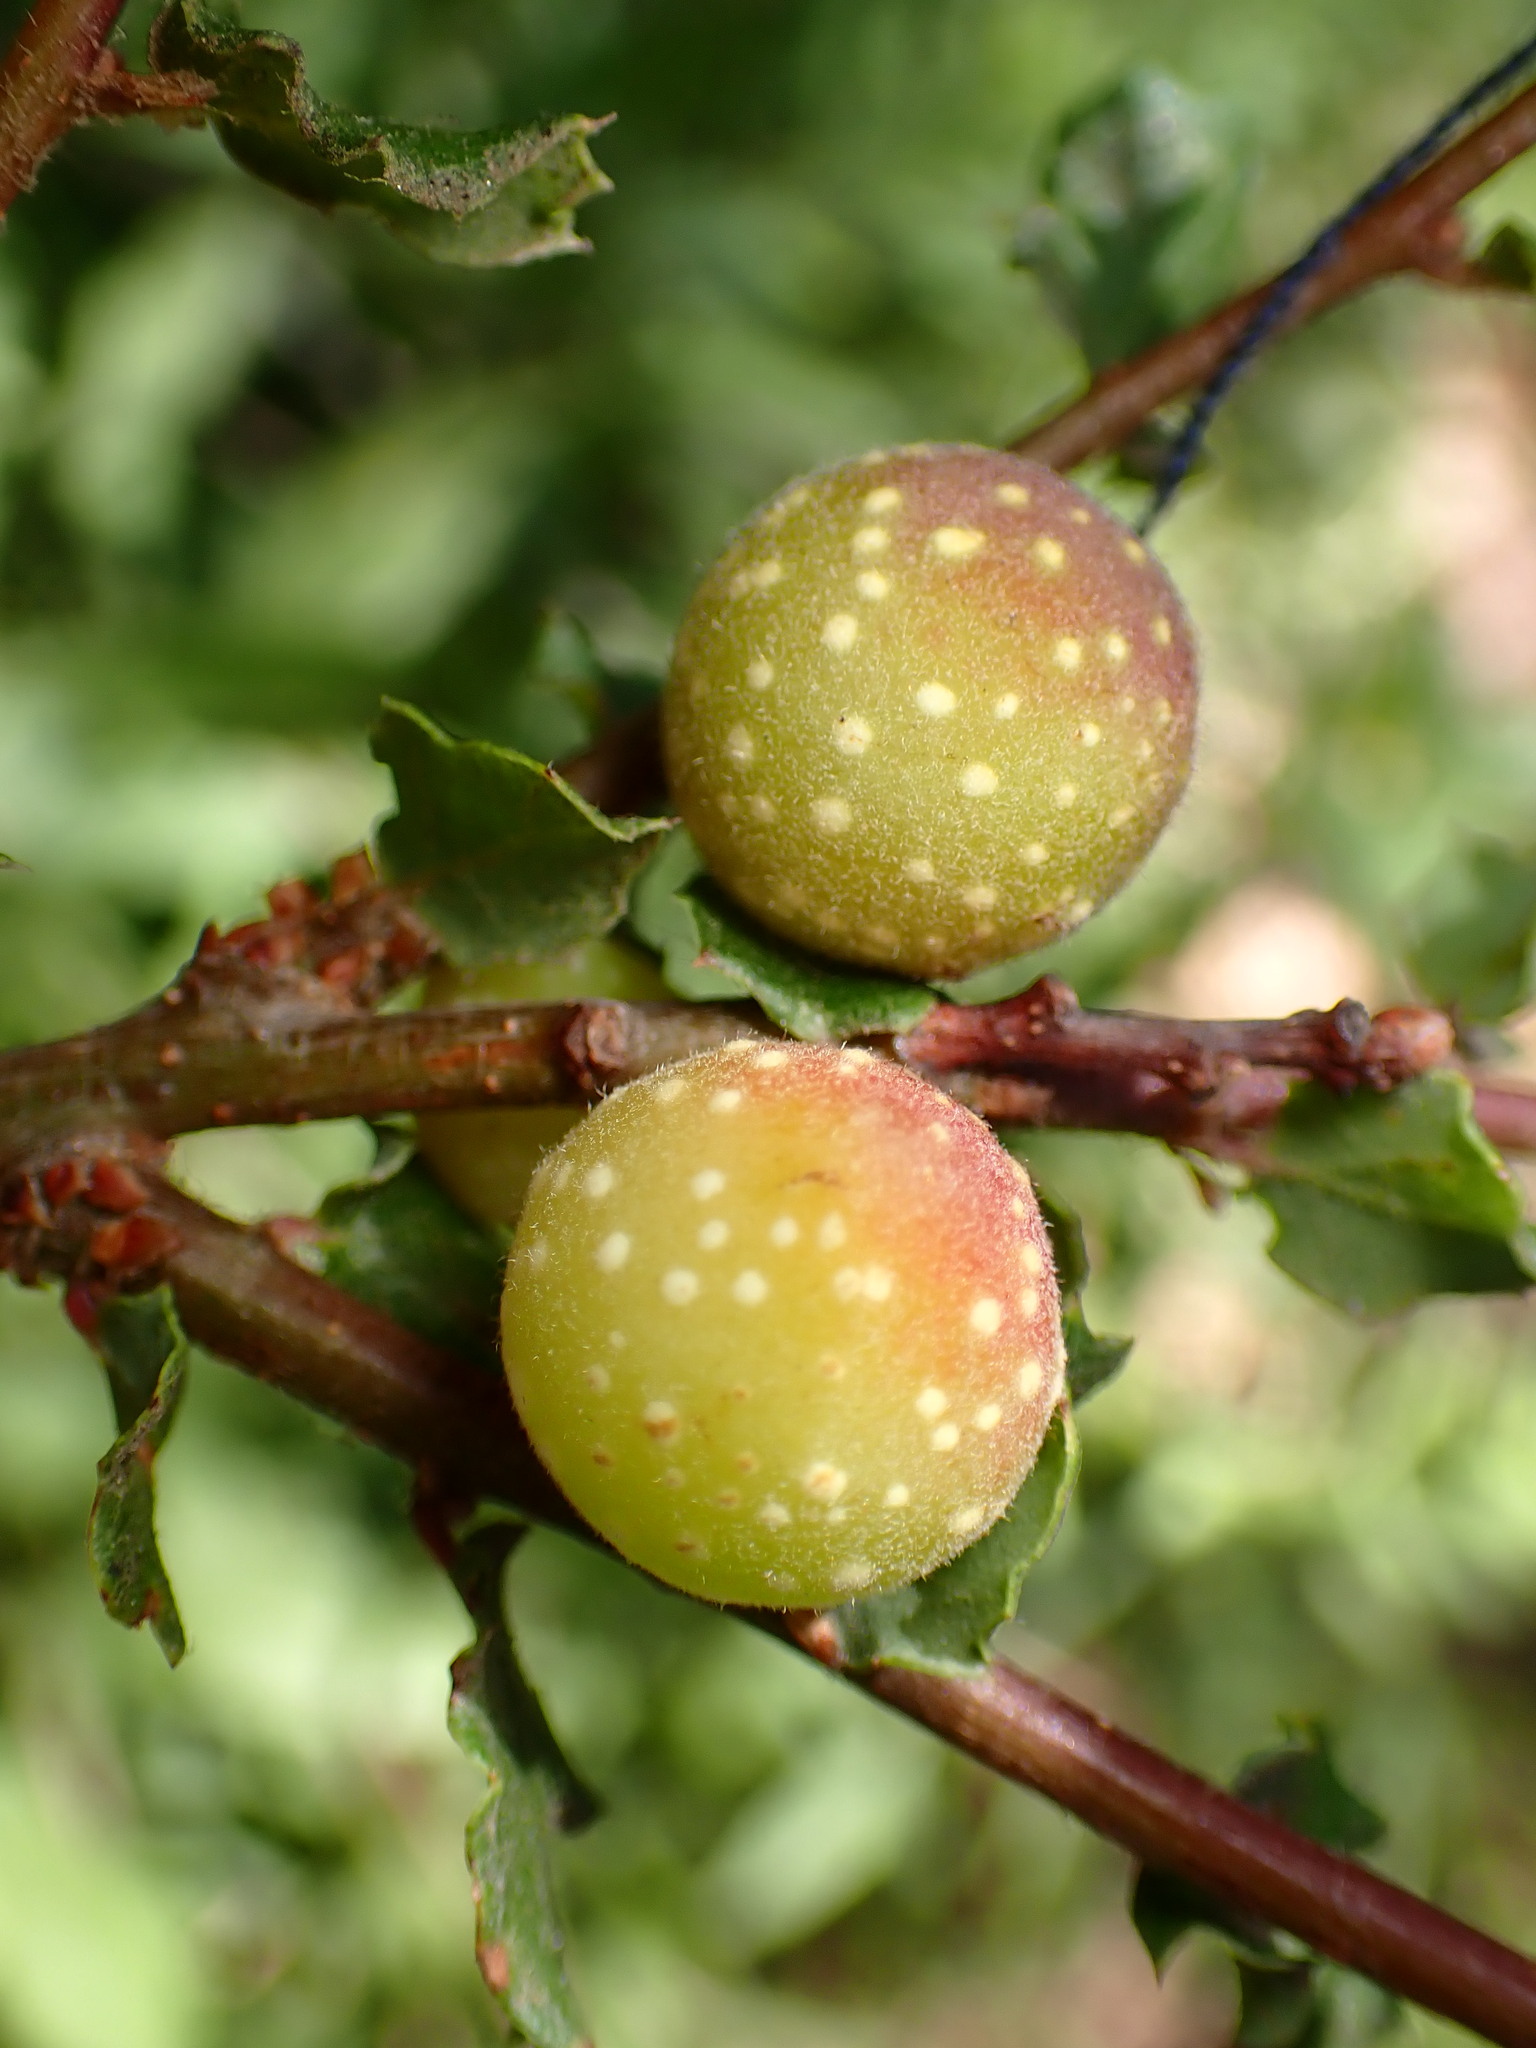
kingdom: Animalia
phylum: Arthropoda
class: Insecta
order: Hymenoptera
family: Cynipidae
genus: Burnettweldia
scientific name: Burnettweldia
